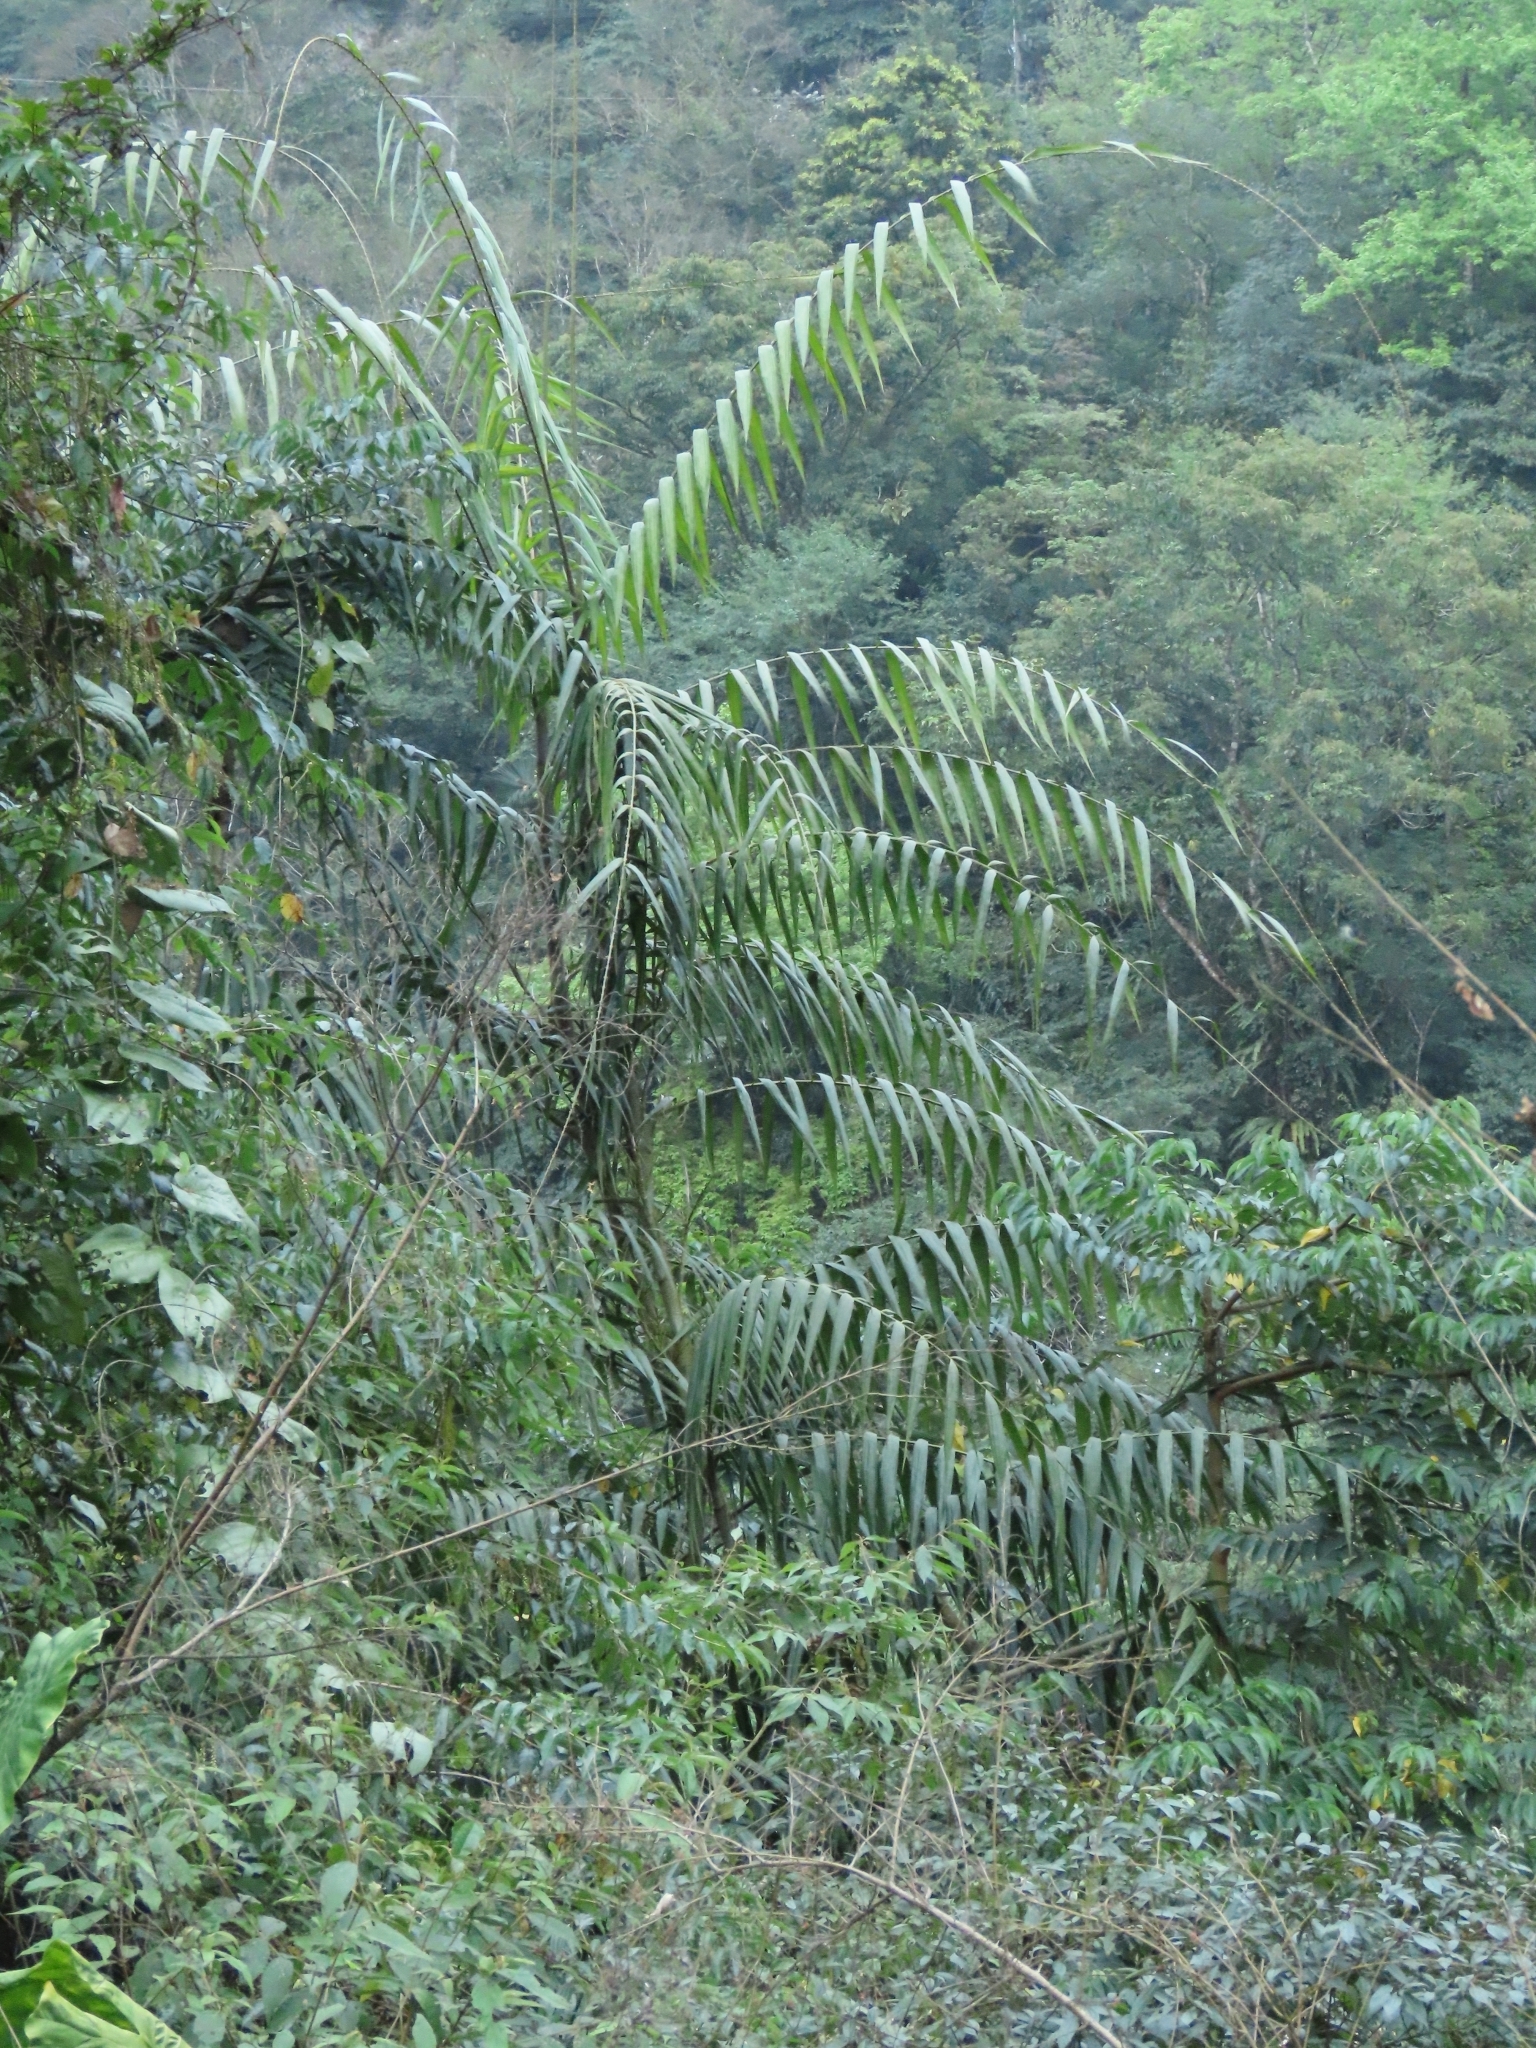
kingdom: Plantae
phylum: Tracheophyta
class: Liliopsida
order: Arecales
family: Arecaceae
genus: Calamus
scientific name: Calamus formosanus
